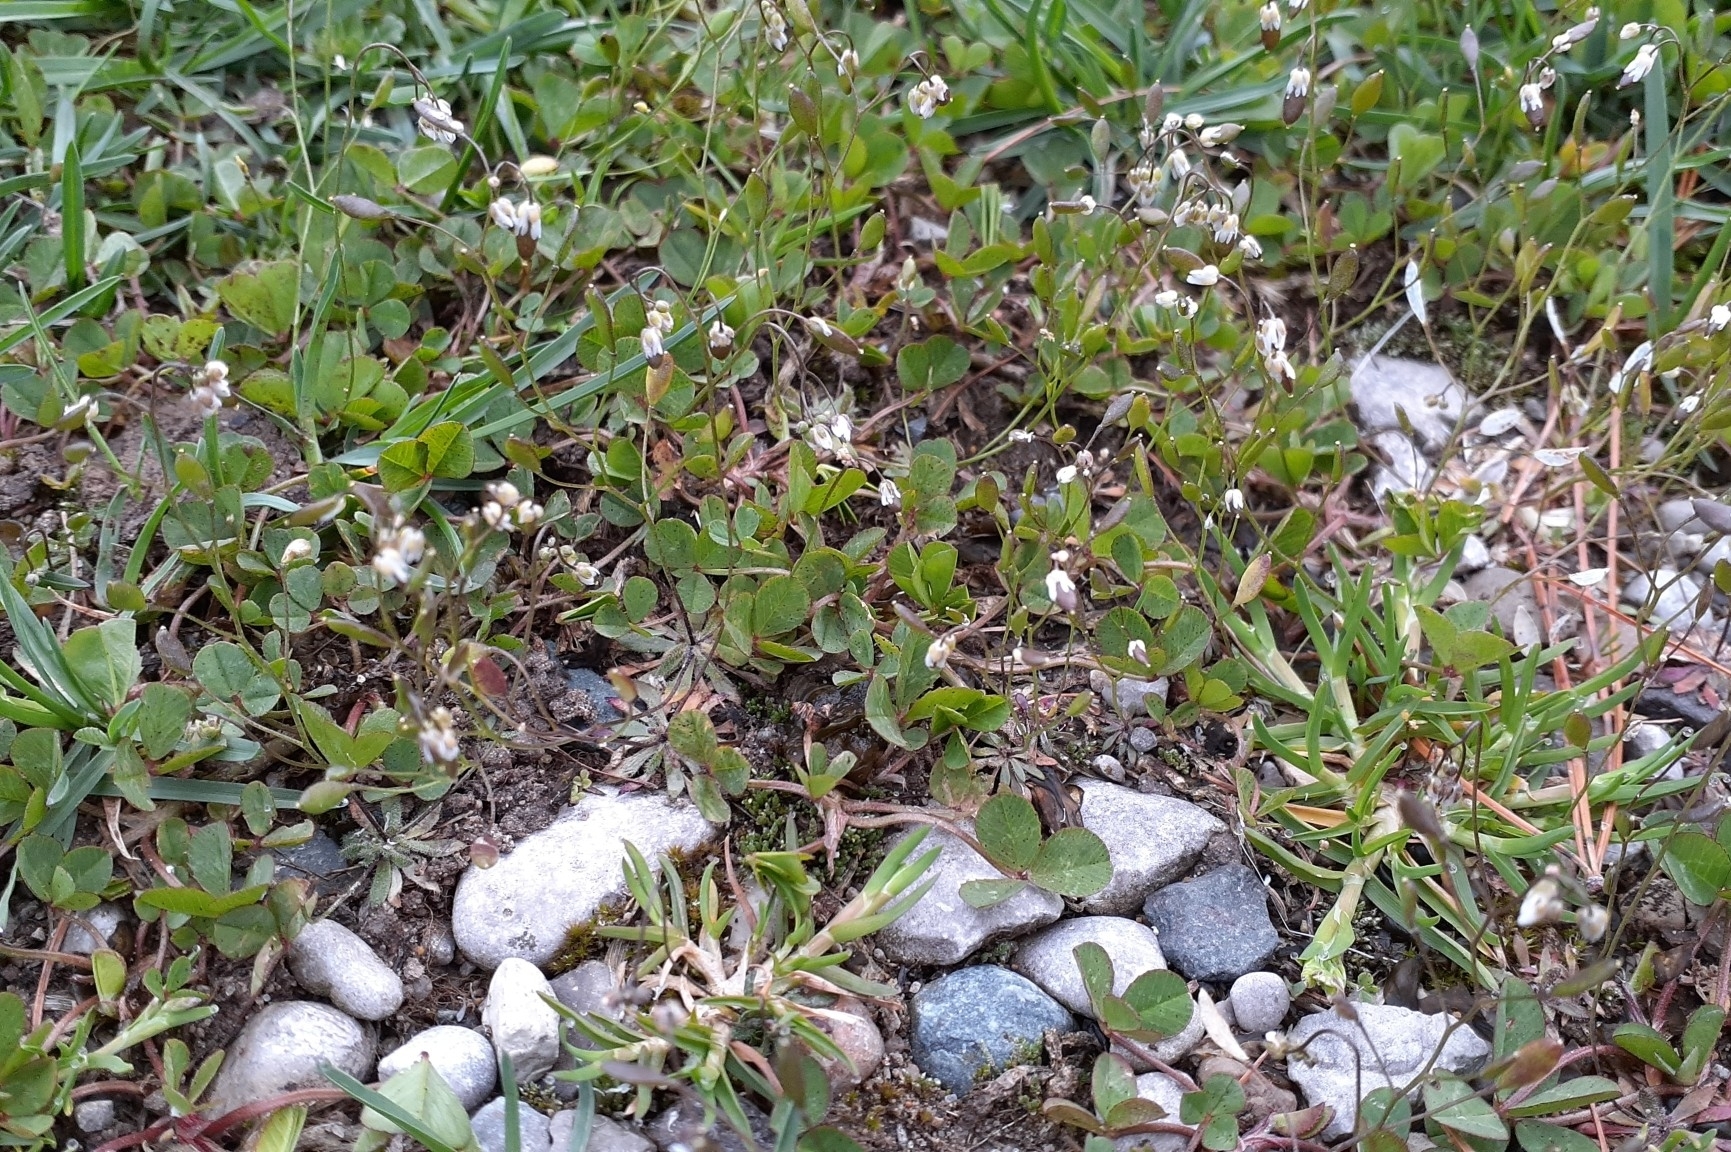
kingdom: Plantae
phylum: Tracheophyta
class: Magnoliopsida
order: Brassicales
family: Brassicaceae
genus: Draba
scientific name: Draba verna
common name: Spring draba
